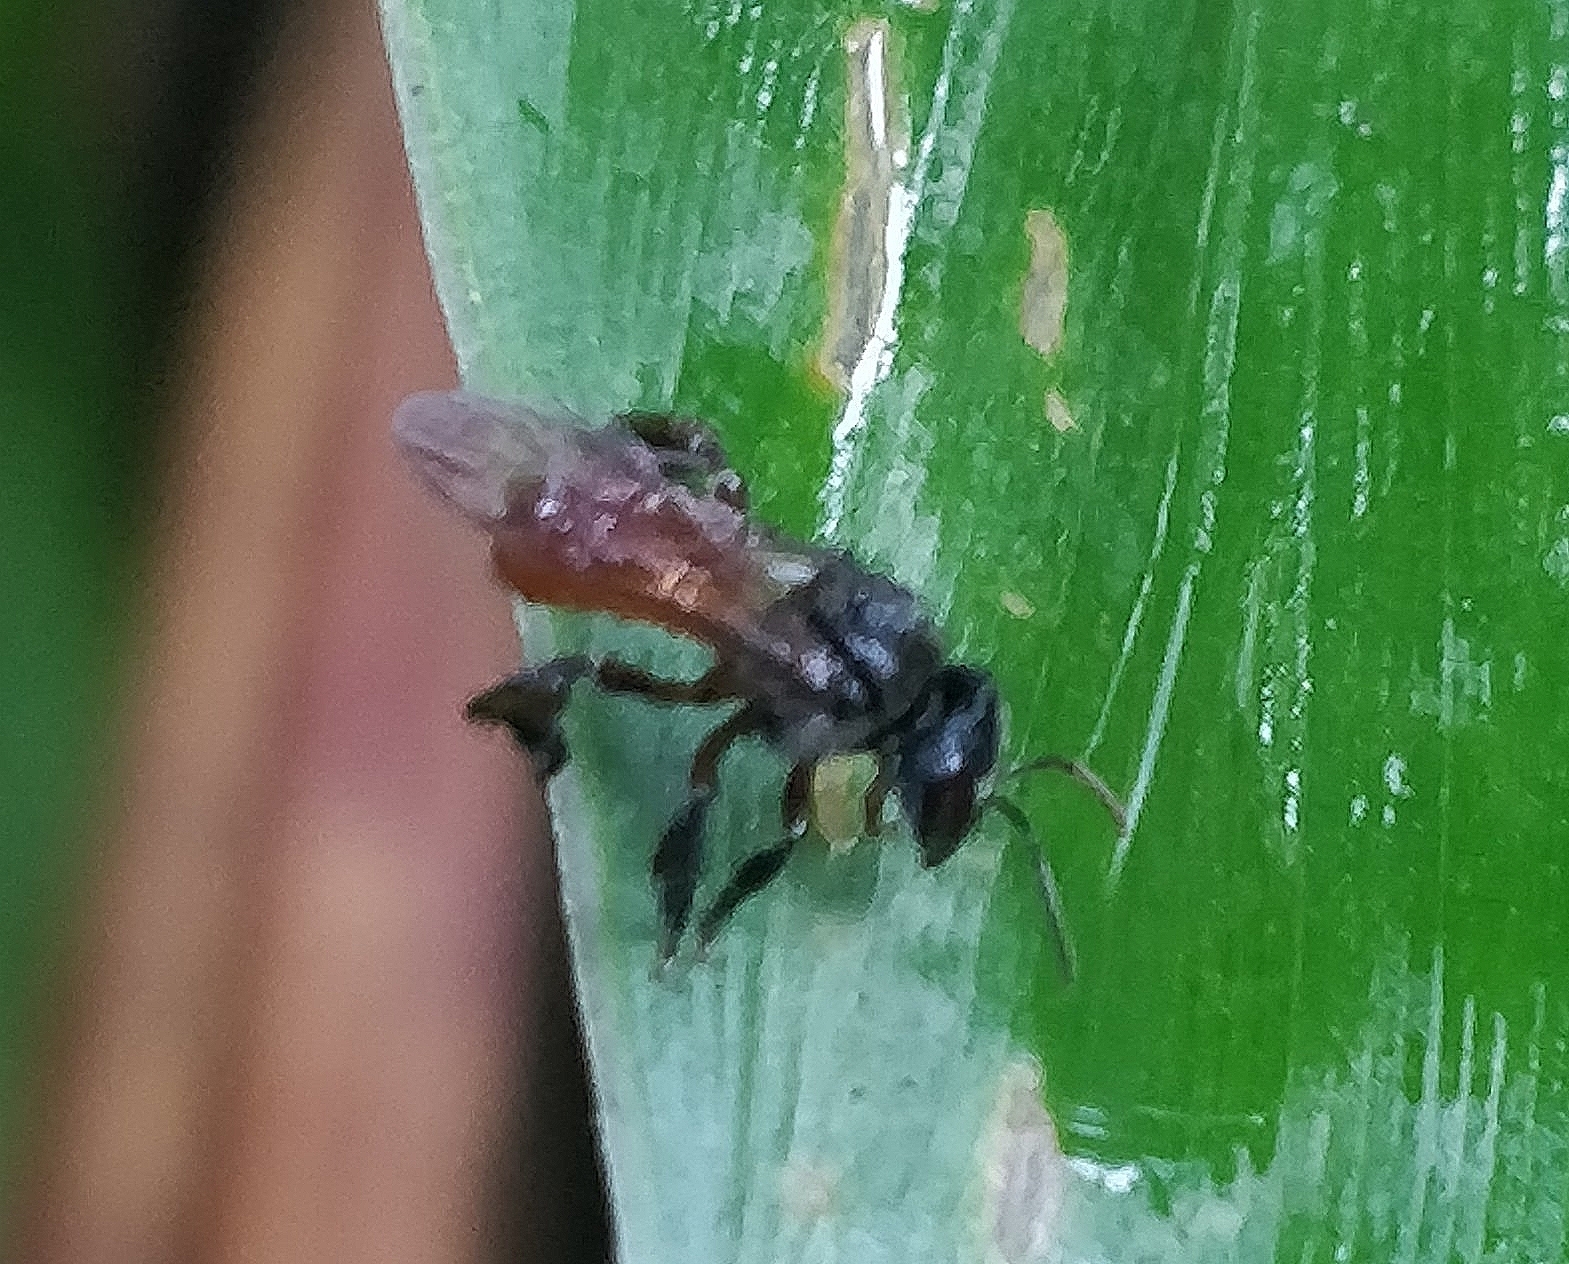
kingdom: Animalia
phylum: Arthropoda
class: Insecta
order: Hymenoptera
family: Apidae
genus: Trigona
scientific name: Trigona fulviventris
